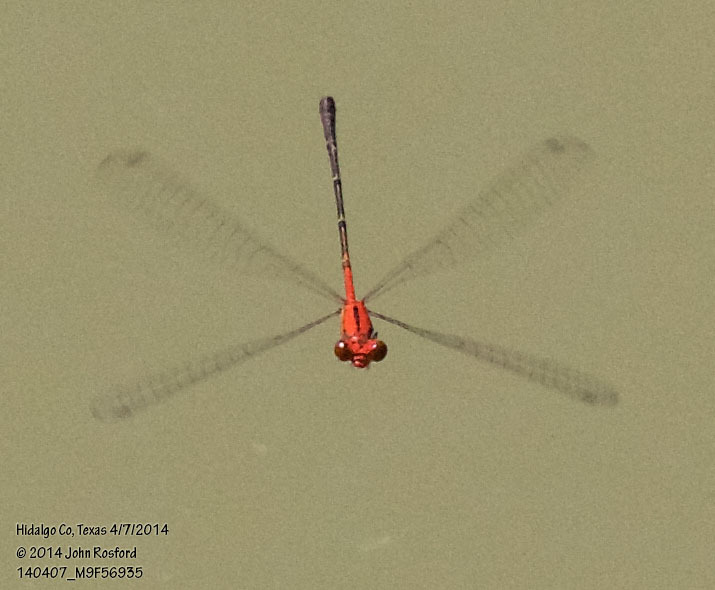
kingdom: Animalia
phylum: Arthropoda
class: Insecta
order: Odonata
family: Coenagrionidae
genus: Neoneura
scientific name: Neoneura amelia
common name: Amelia’s threadtail
